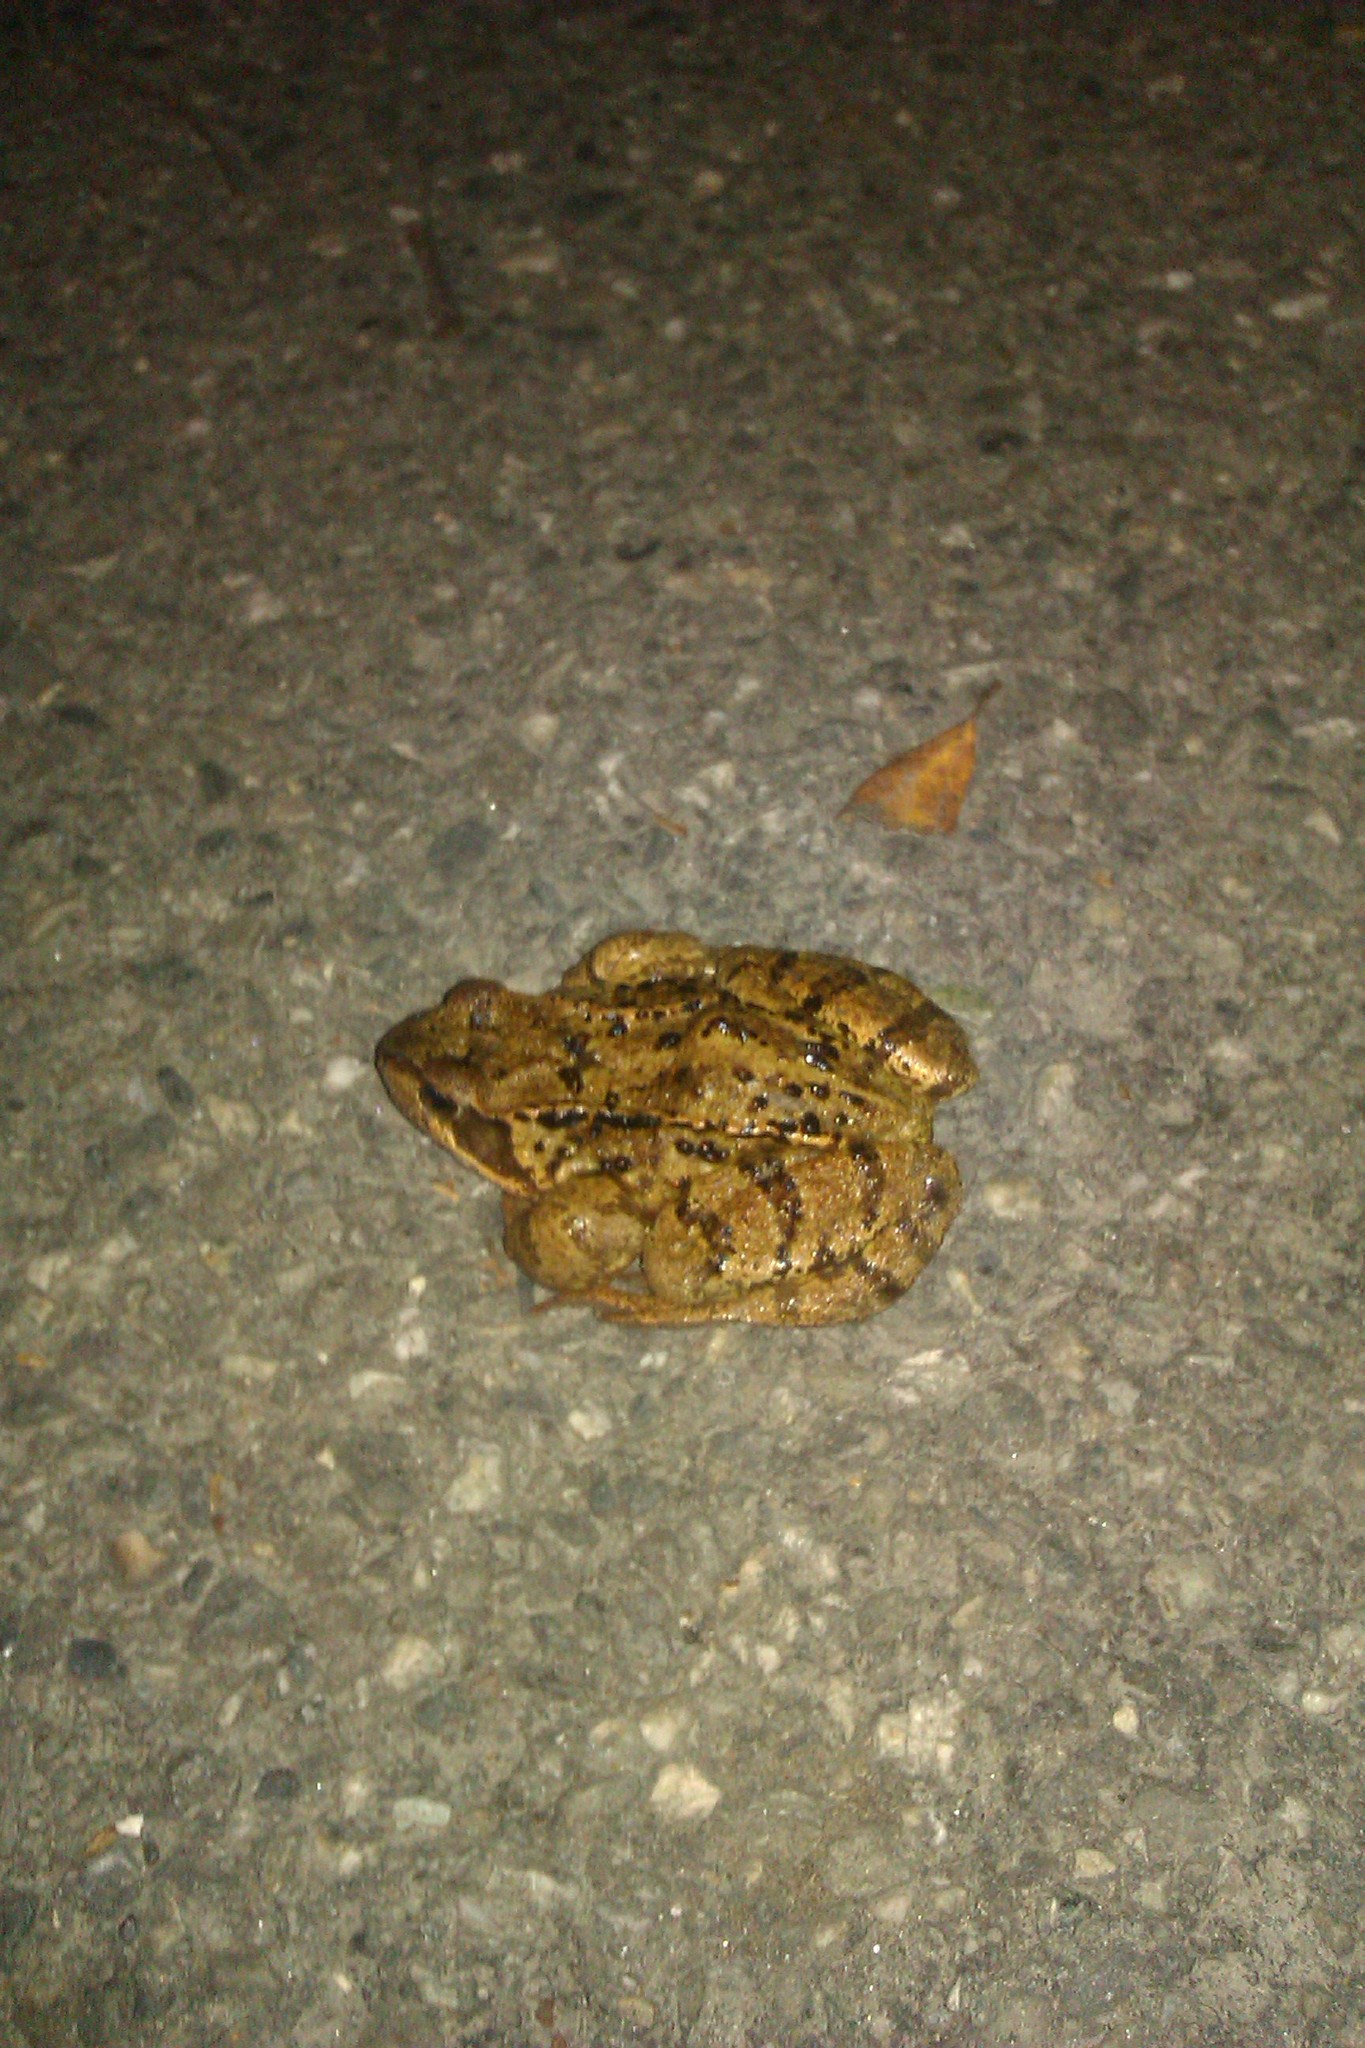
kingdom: Animalia
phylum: Chordata
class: Amphibia
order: Anura
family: Ranidae
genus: Rana
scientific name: Rana temporaria
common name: Common frog
